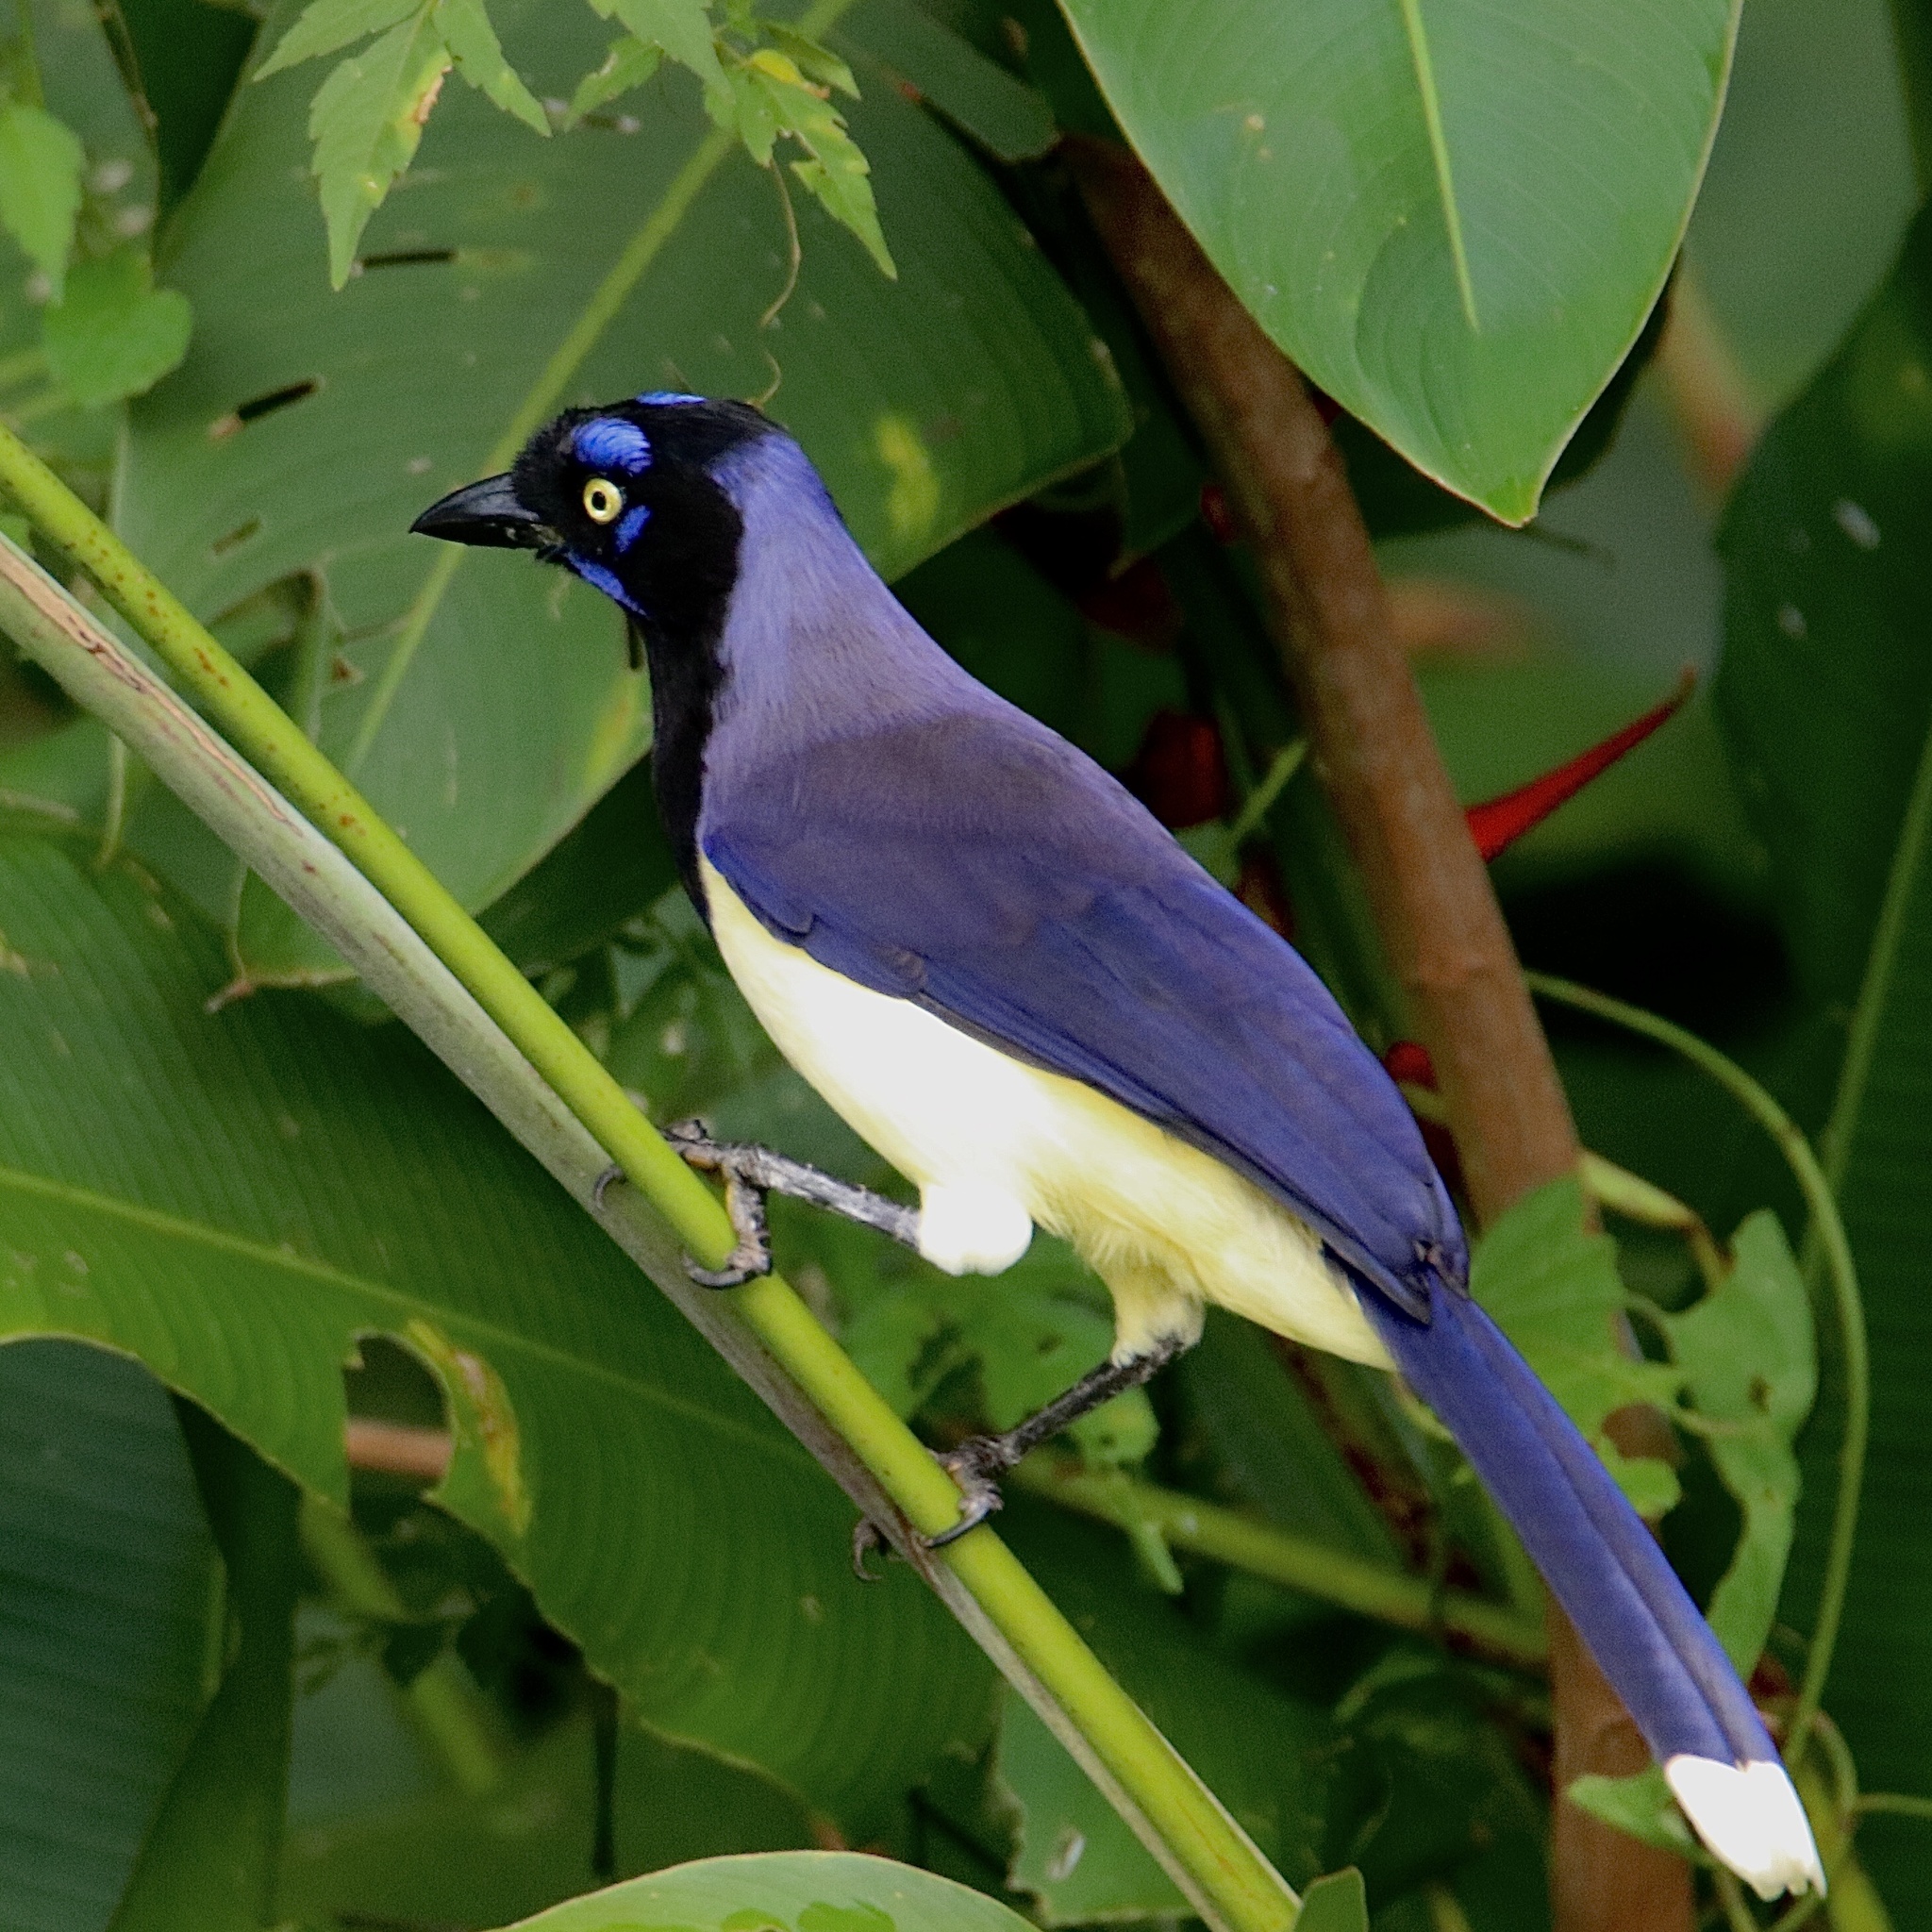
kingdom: Animalia
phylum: Chordata
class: Aves
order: Passeriformes
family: Corvidae
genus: Cyanocorax
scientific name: Cyanocorax affinis
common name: Black-chested jay
